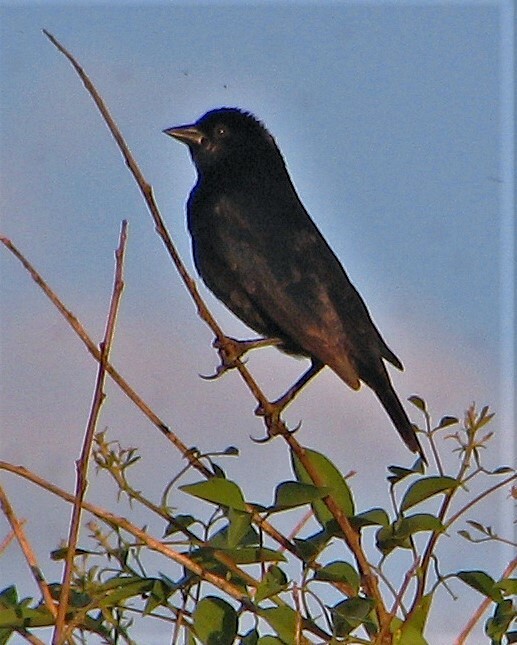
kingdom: Animalia
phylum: Chordata
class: Aves
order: Passeriformes
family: Icteridae
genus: Molothrus
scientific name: Molothrus rufoaxillaris
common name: Screaming cowbird
